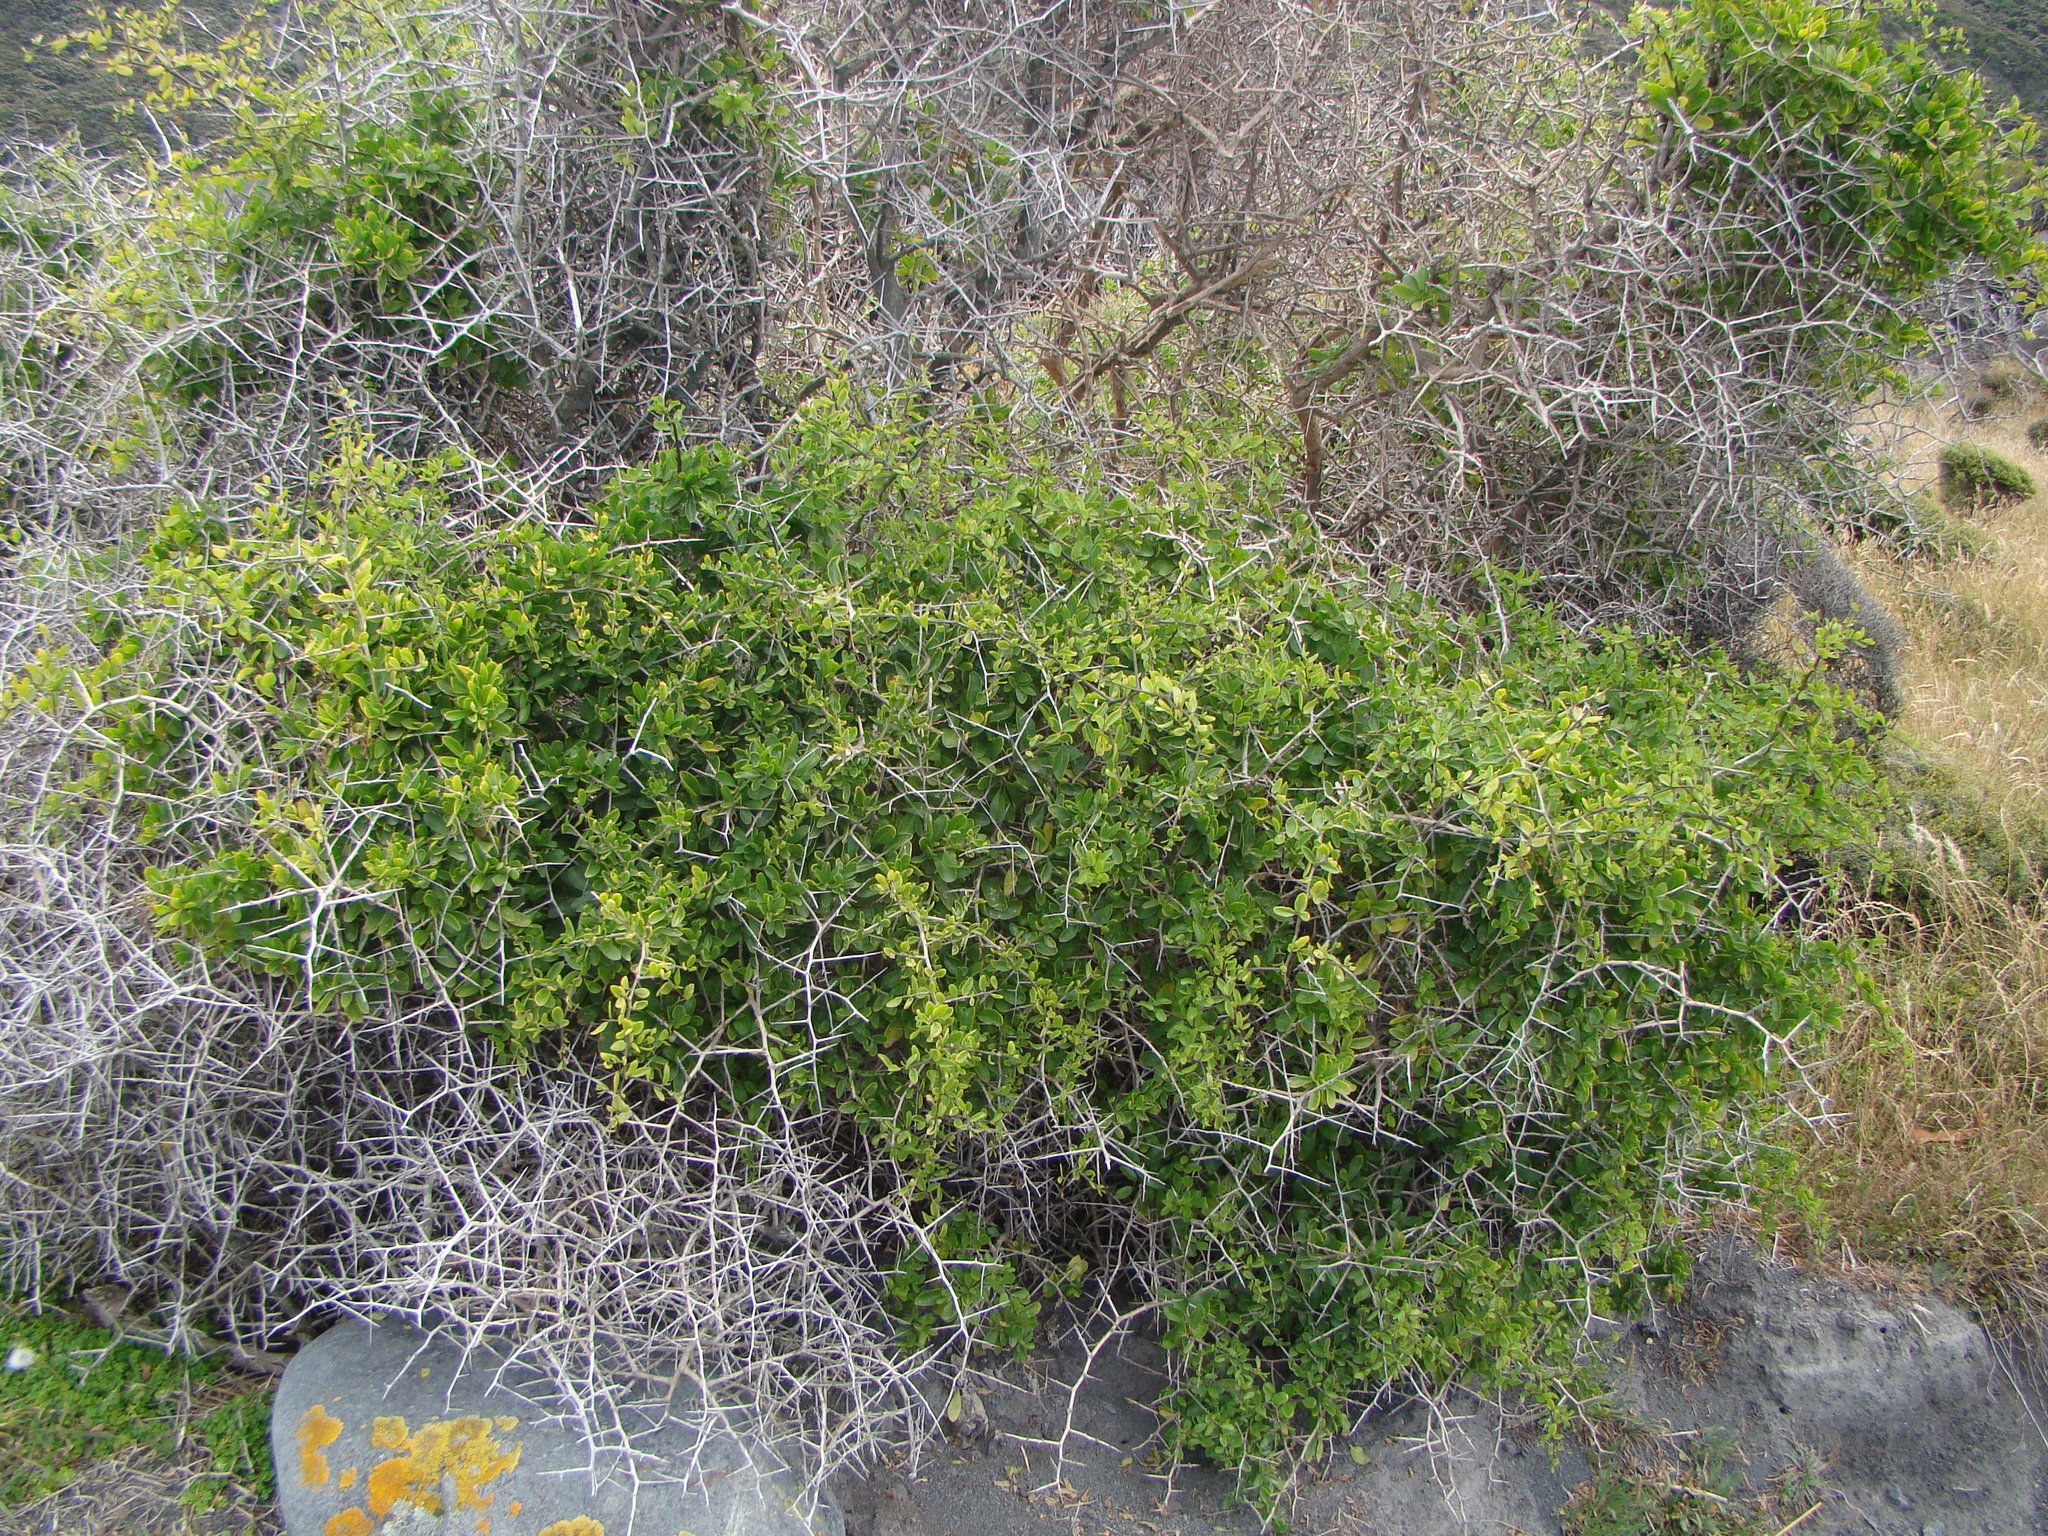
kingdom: Plantae
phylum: Tracheophyta
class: Magnoliopsida
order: Solanales
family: Solanaceae
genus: Lycium
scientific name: Lycium ferocissimum
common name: African boxthorn
